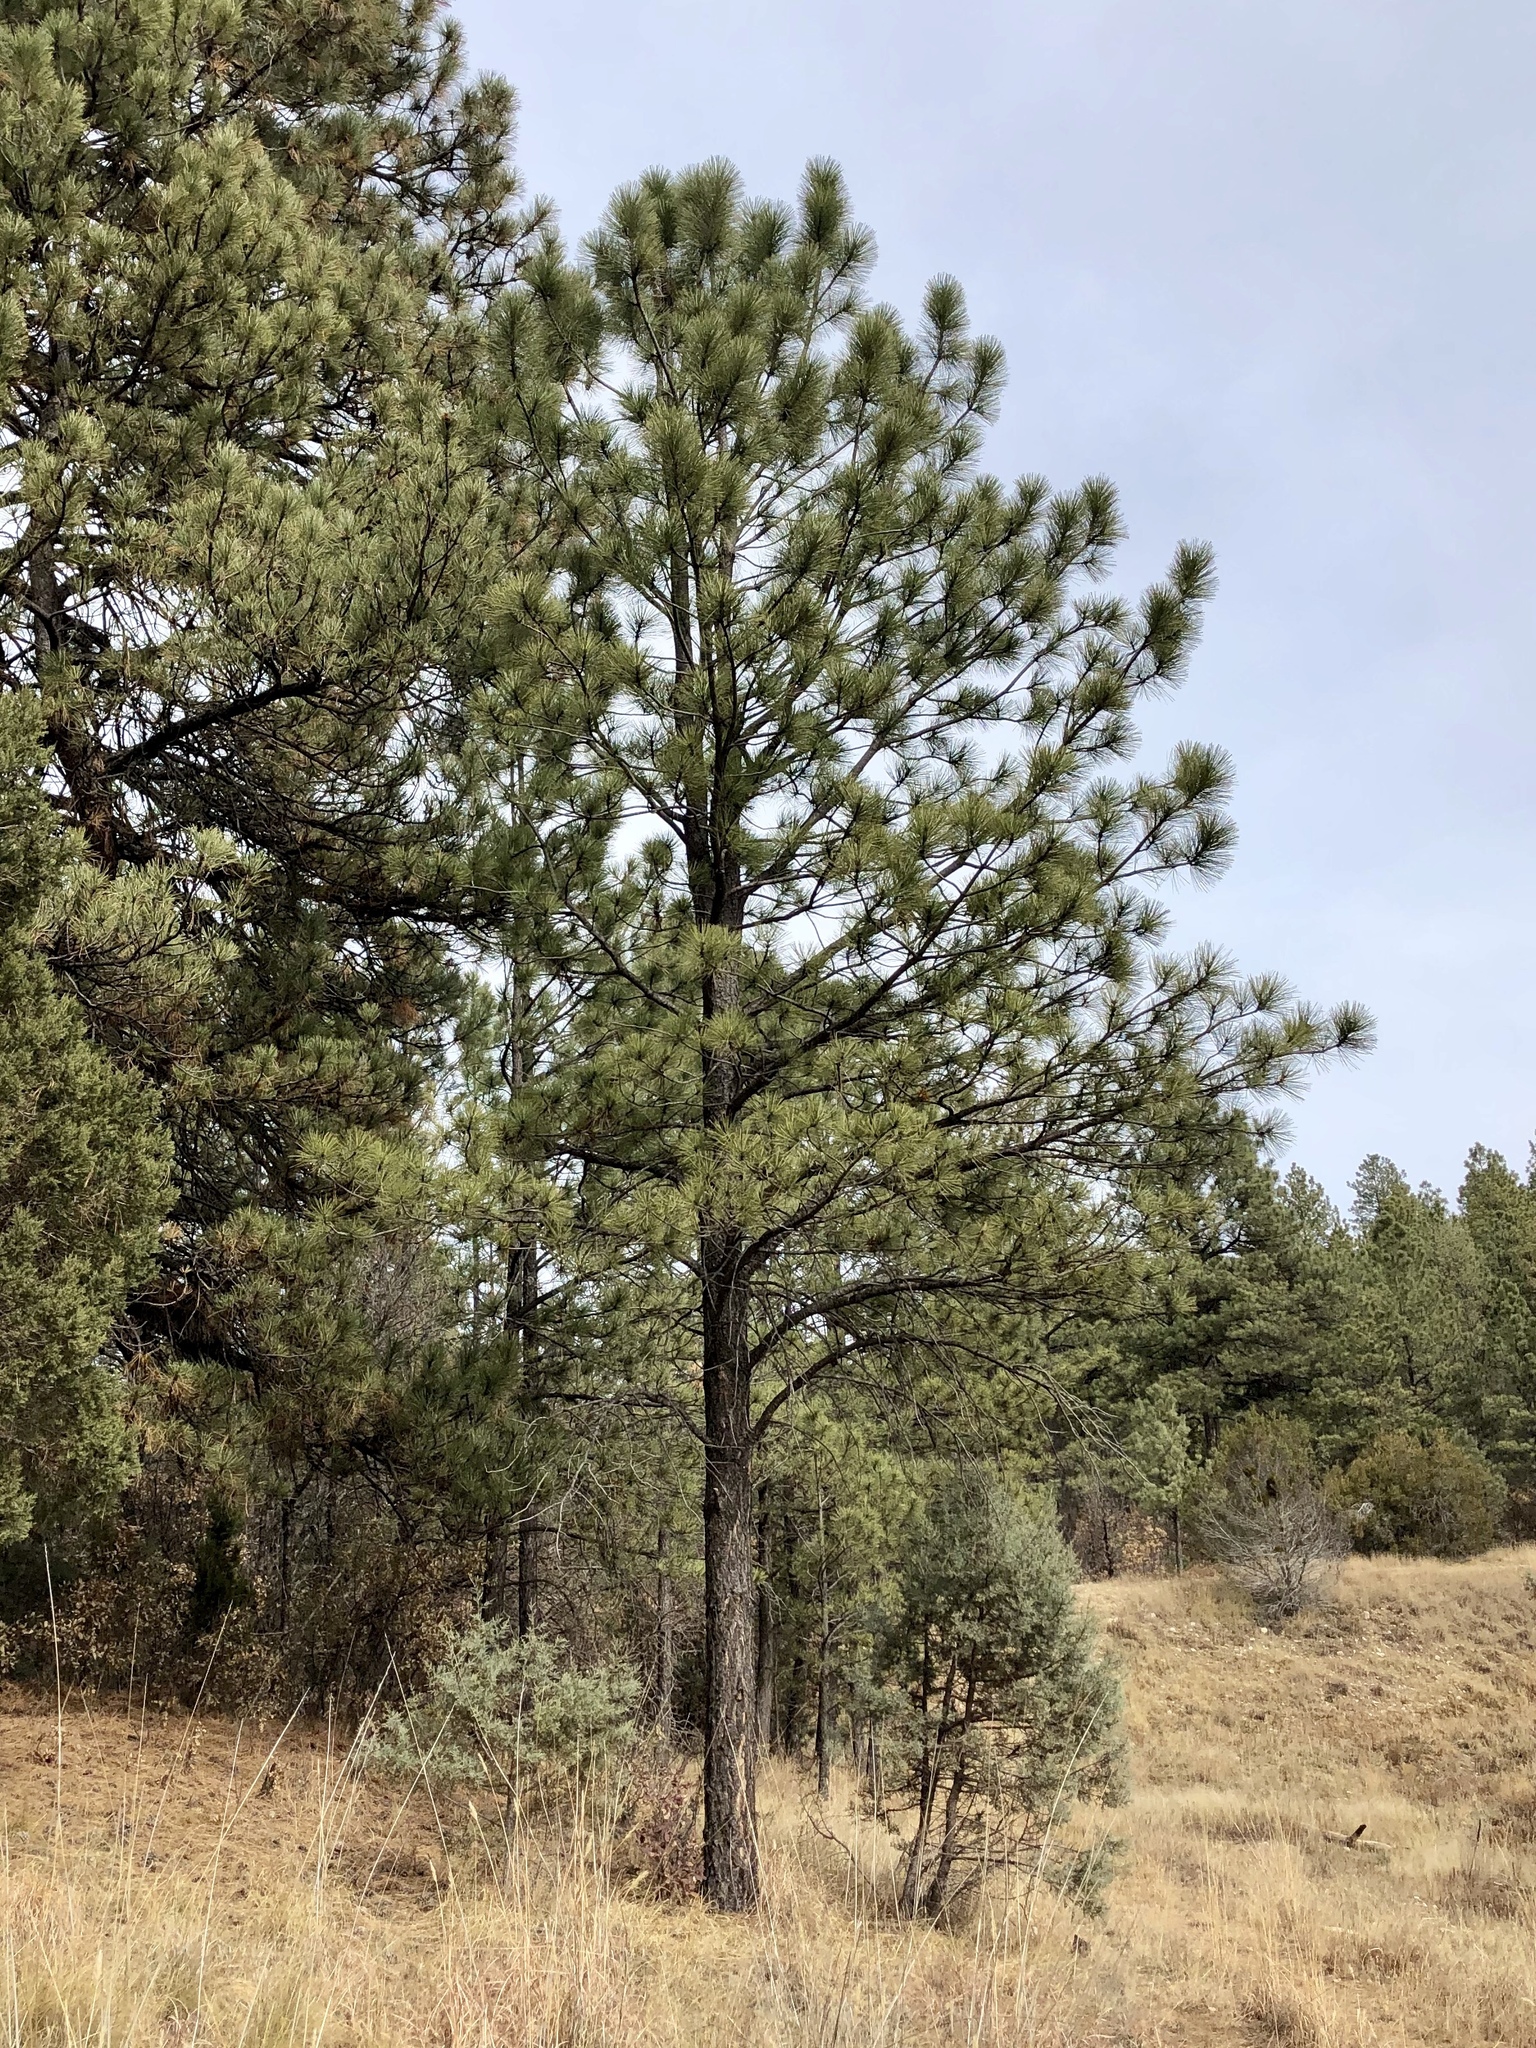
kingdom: Plantae
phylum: Tracheophyta
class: Pinopsida
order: Pinales
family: Pinaceae
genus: Pinus
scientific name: Pinus ponderosa
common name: Western yellow-pine
